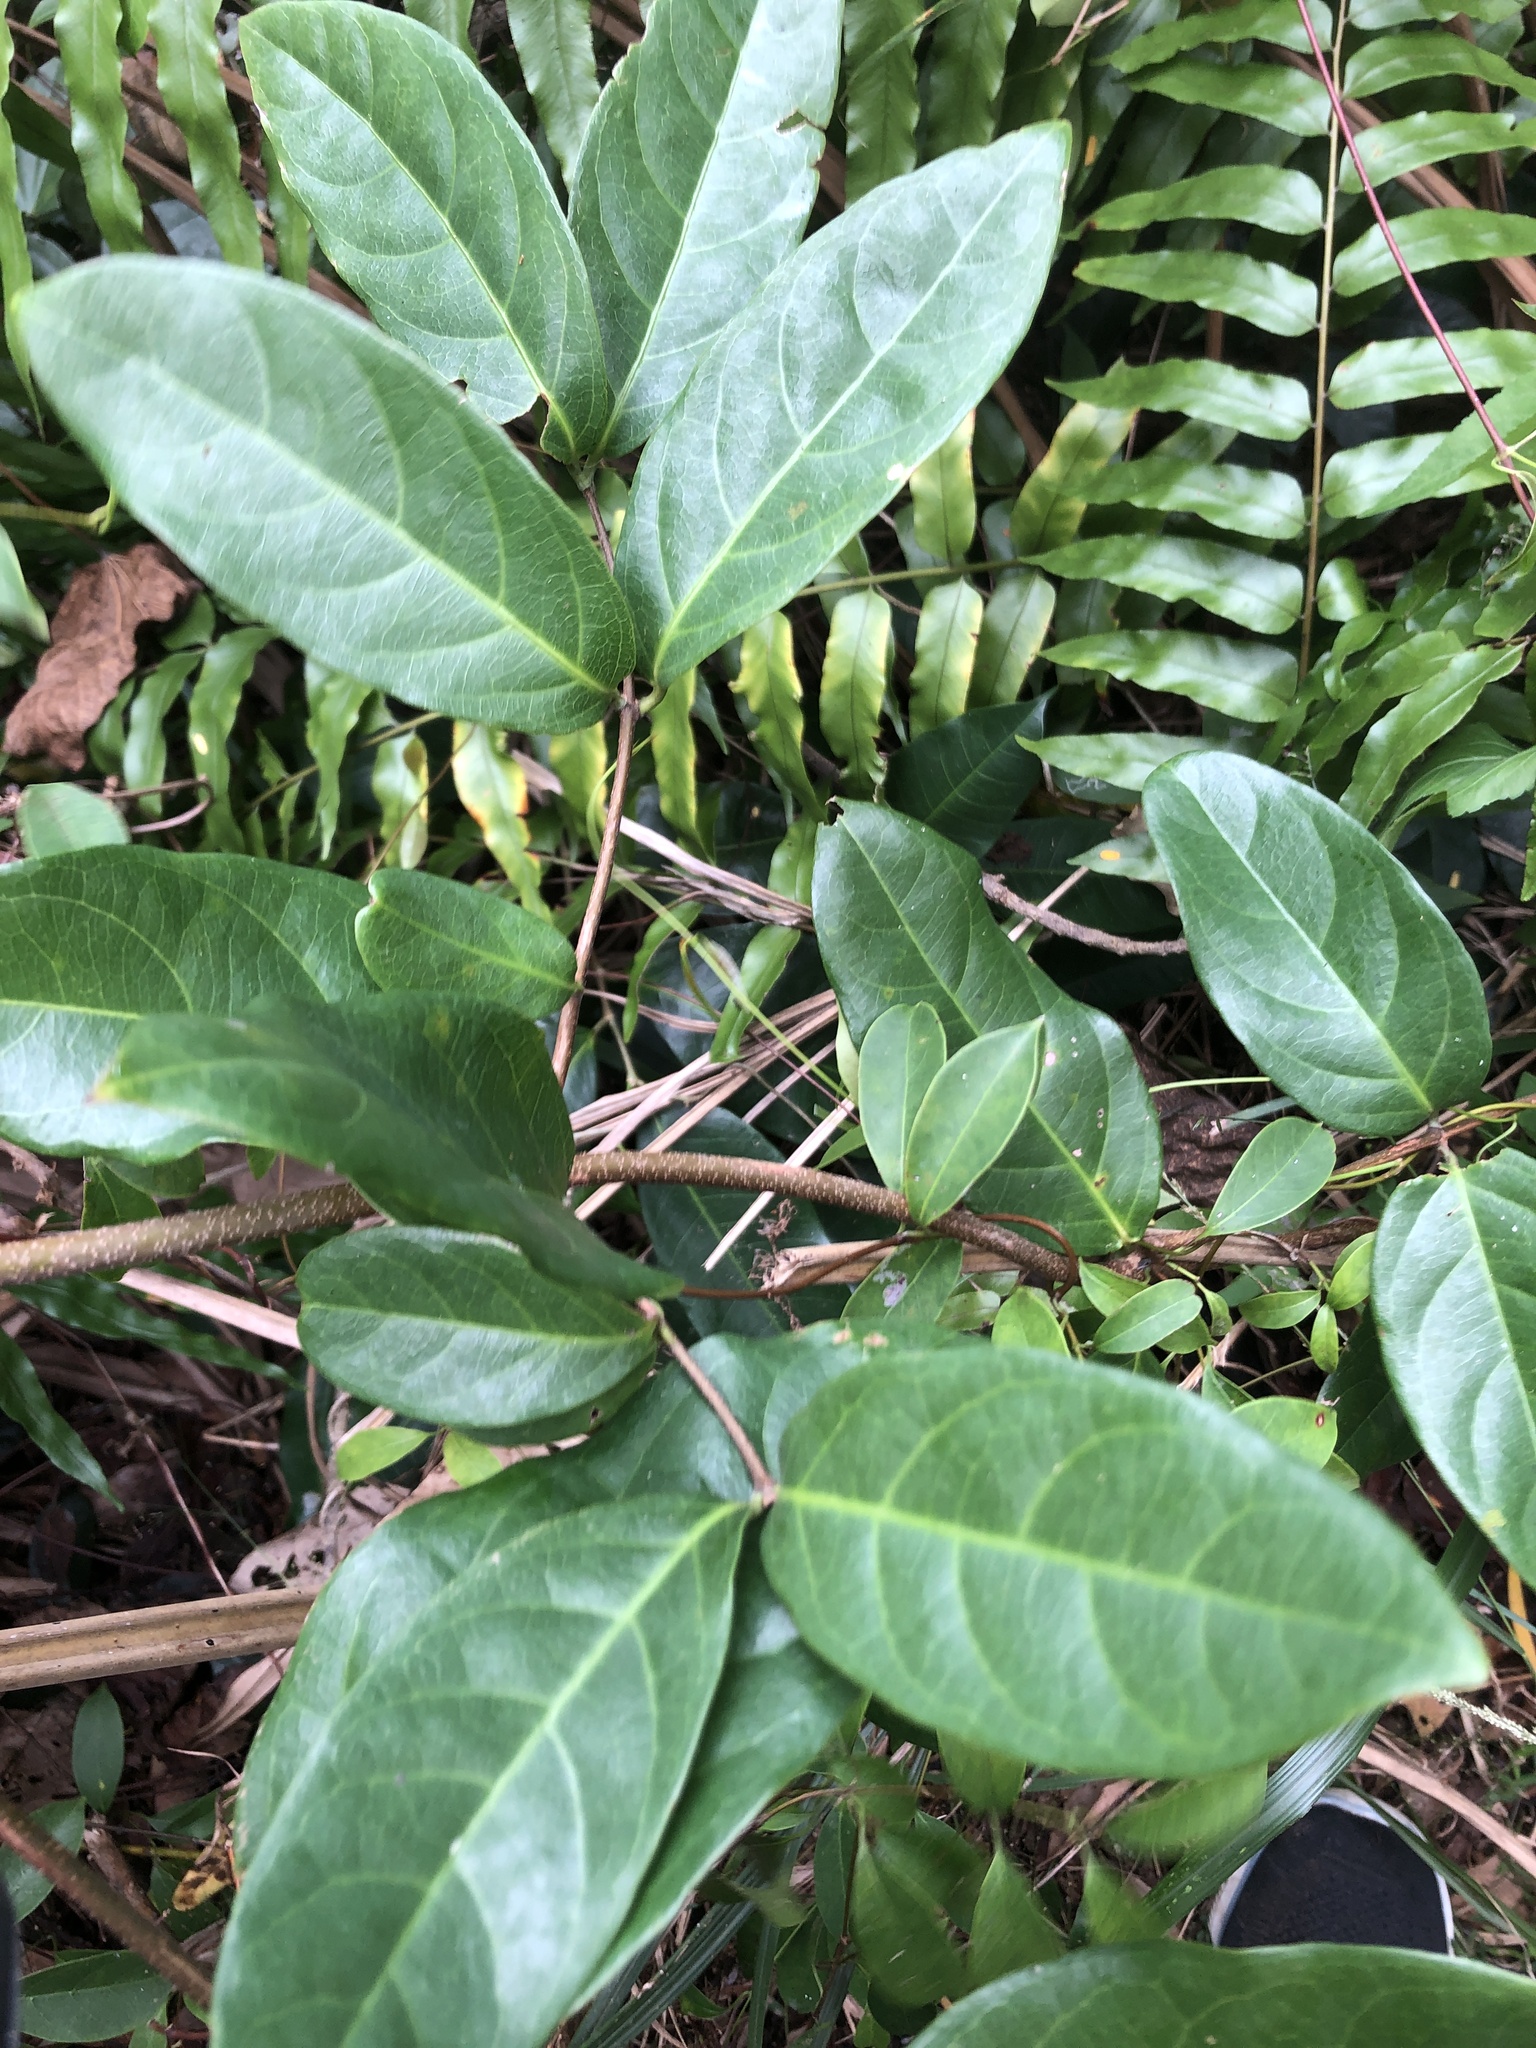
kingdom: Plantae
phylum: Tracheophyta
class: Magnoliopsida
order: Malpighiales
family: Malpighiaceae
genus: Hiptage
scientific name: Hiptage benghalensis
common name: Hiptage
